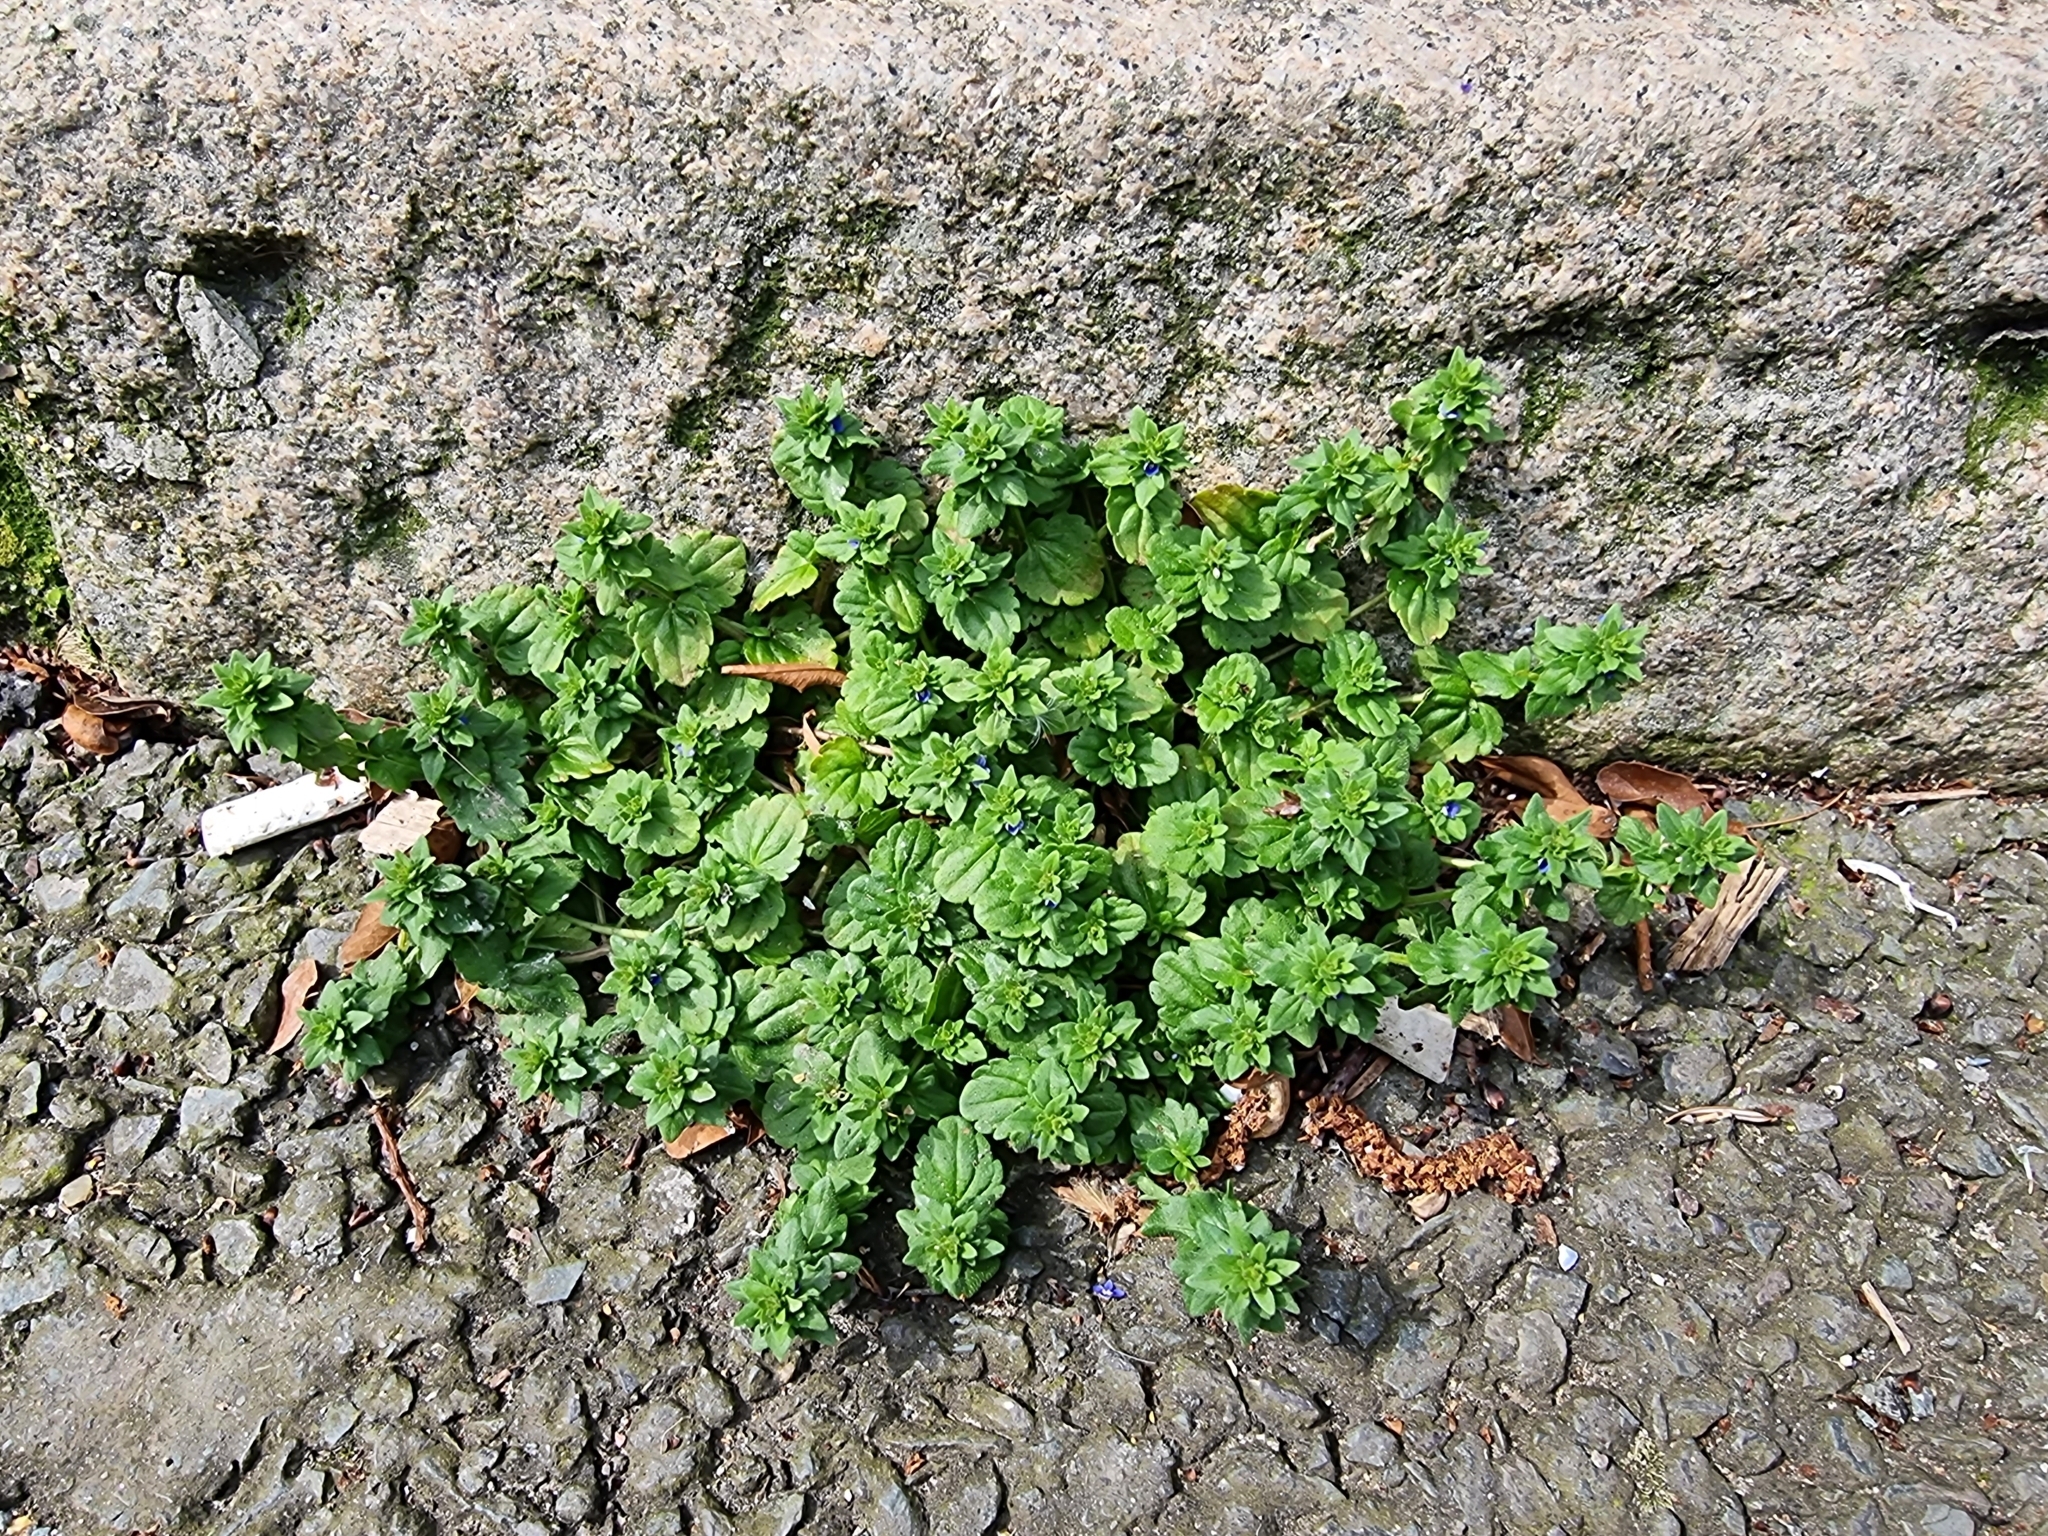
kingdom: Plantae
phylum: Tracheophyta
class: Magnoliopsida
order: Lamiales
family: Plantaginaceae
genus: Veronica
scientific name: Veronica arvensis
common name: Corn speedwell
